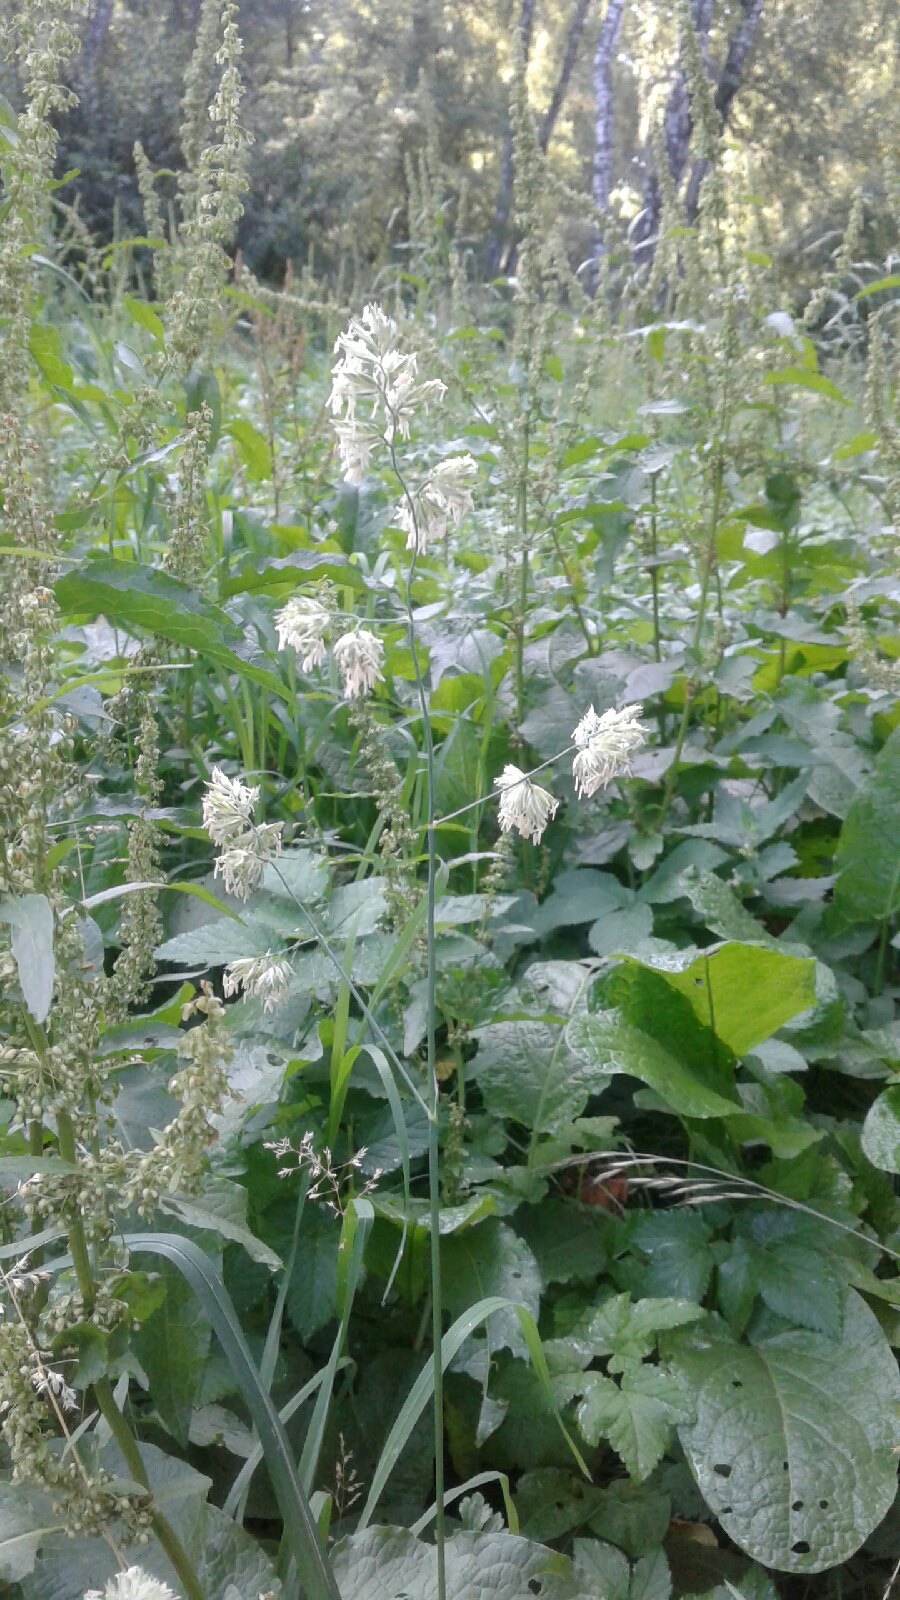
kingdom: Plantae
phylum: Tracheophyta
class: Liliopsida
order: Poales
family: Poaceae
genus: Dactylis
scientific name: Dactylis glomerata
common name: Orchardgrass
